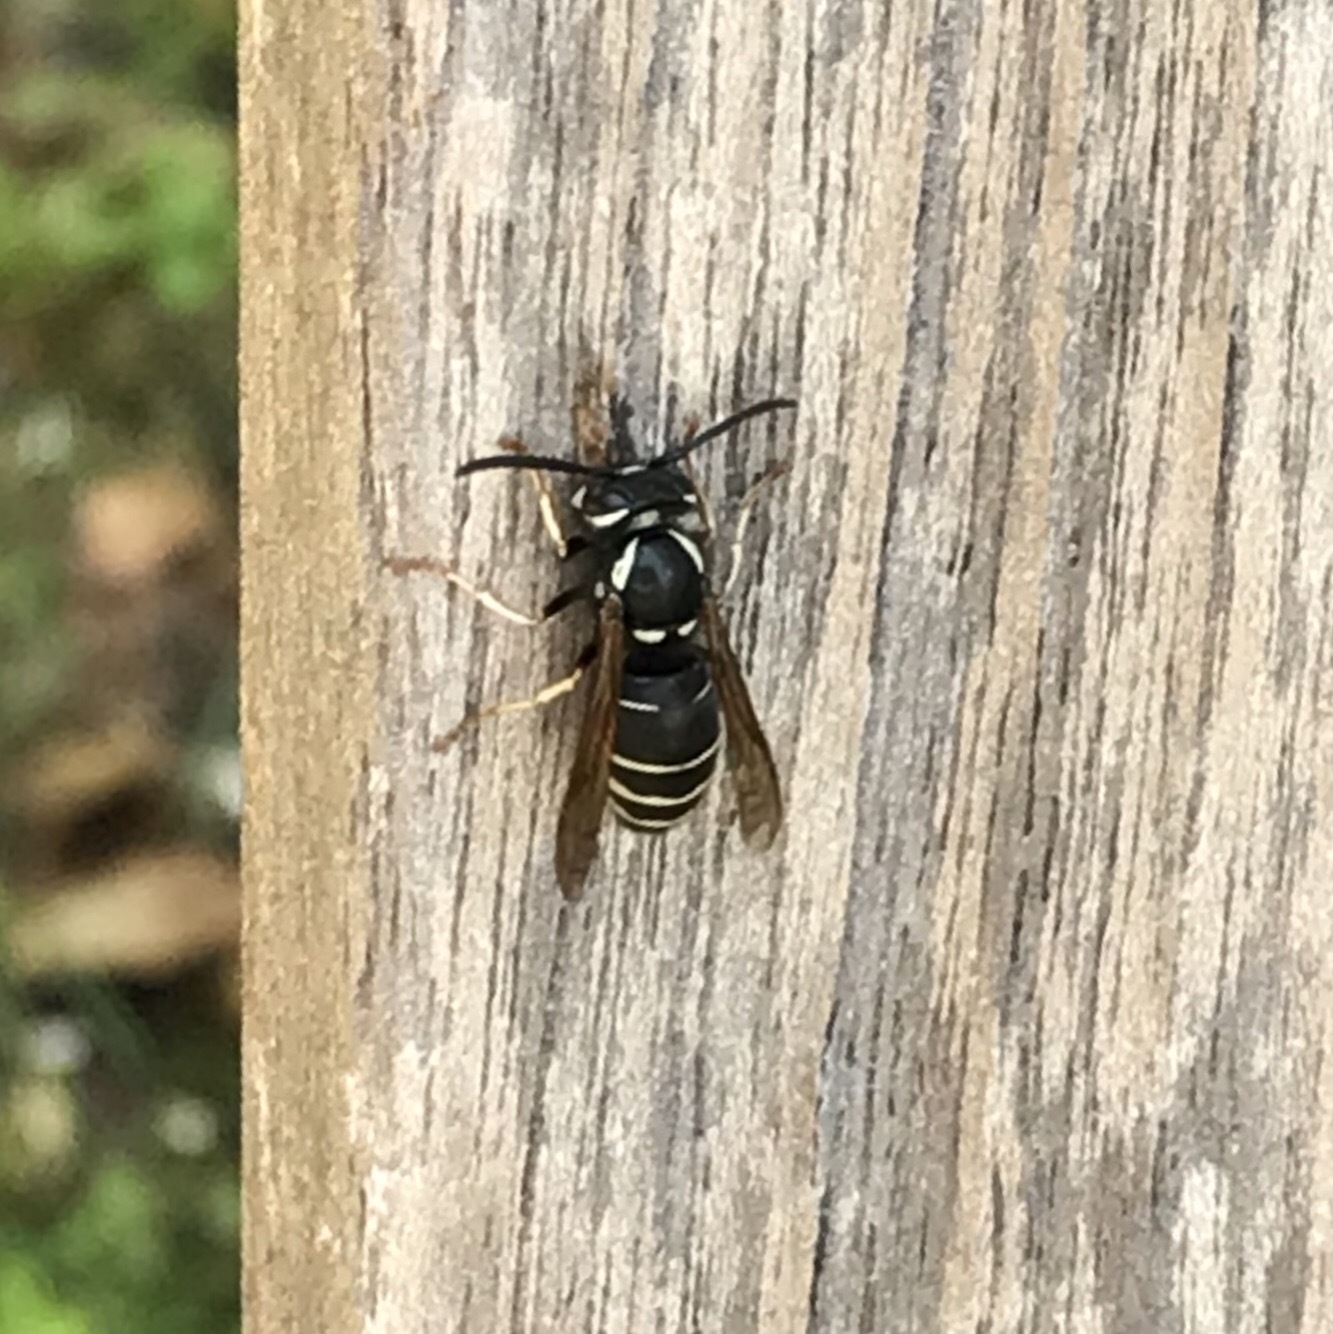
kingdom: Animalia
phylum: Arthropoda
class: Insecta
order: Hymenoptera
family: Vespidae
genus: Vespula
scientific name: Vespula consobrina
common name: Blackjacket
